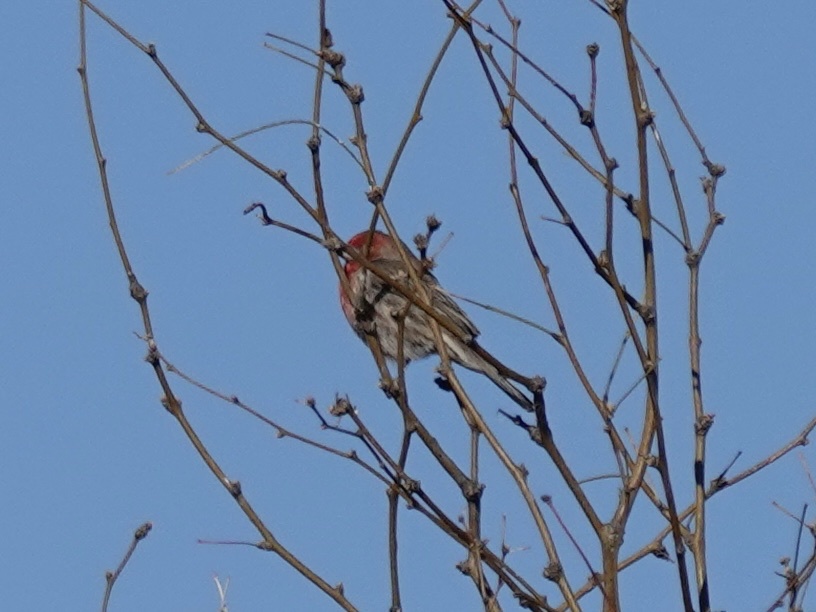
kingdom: Animalia
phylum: Chordata
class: Aves
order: Passeriformes
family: Fringillidae
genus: Haemorhous
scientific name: Haemorhous mexicanus
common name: House finch
